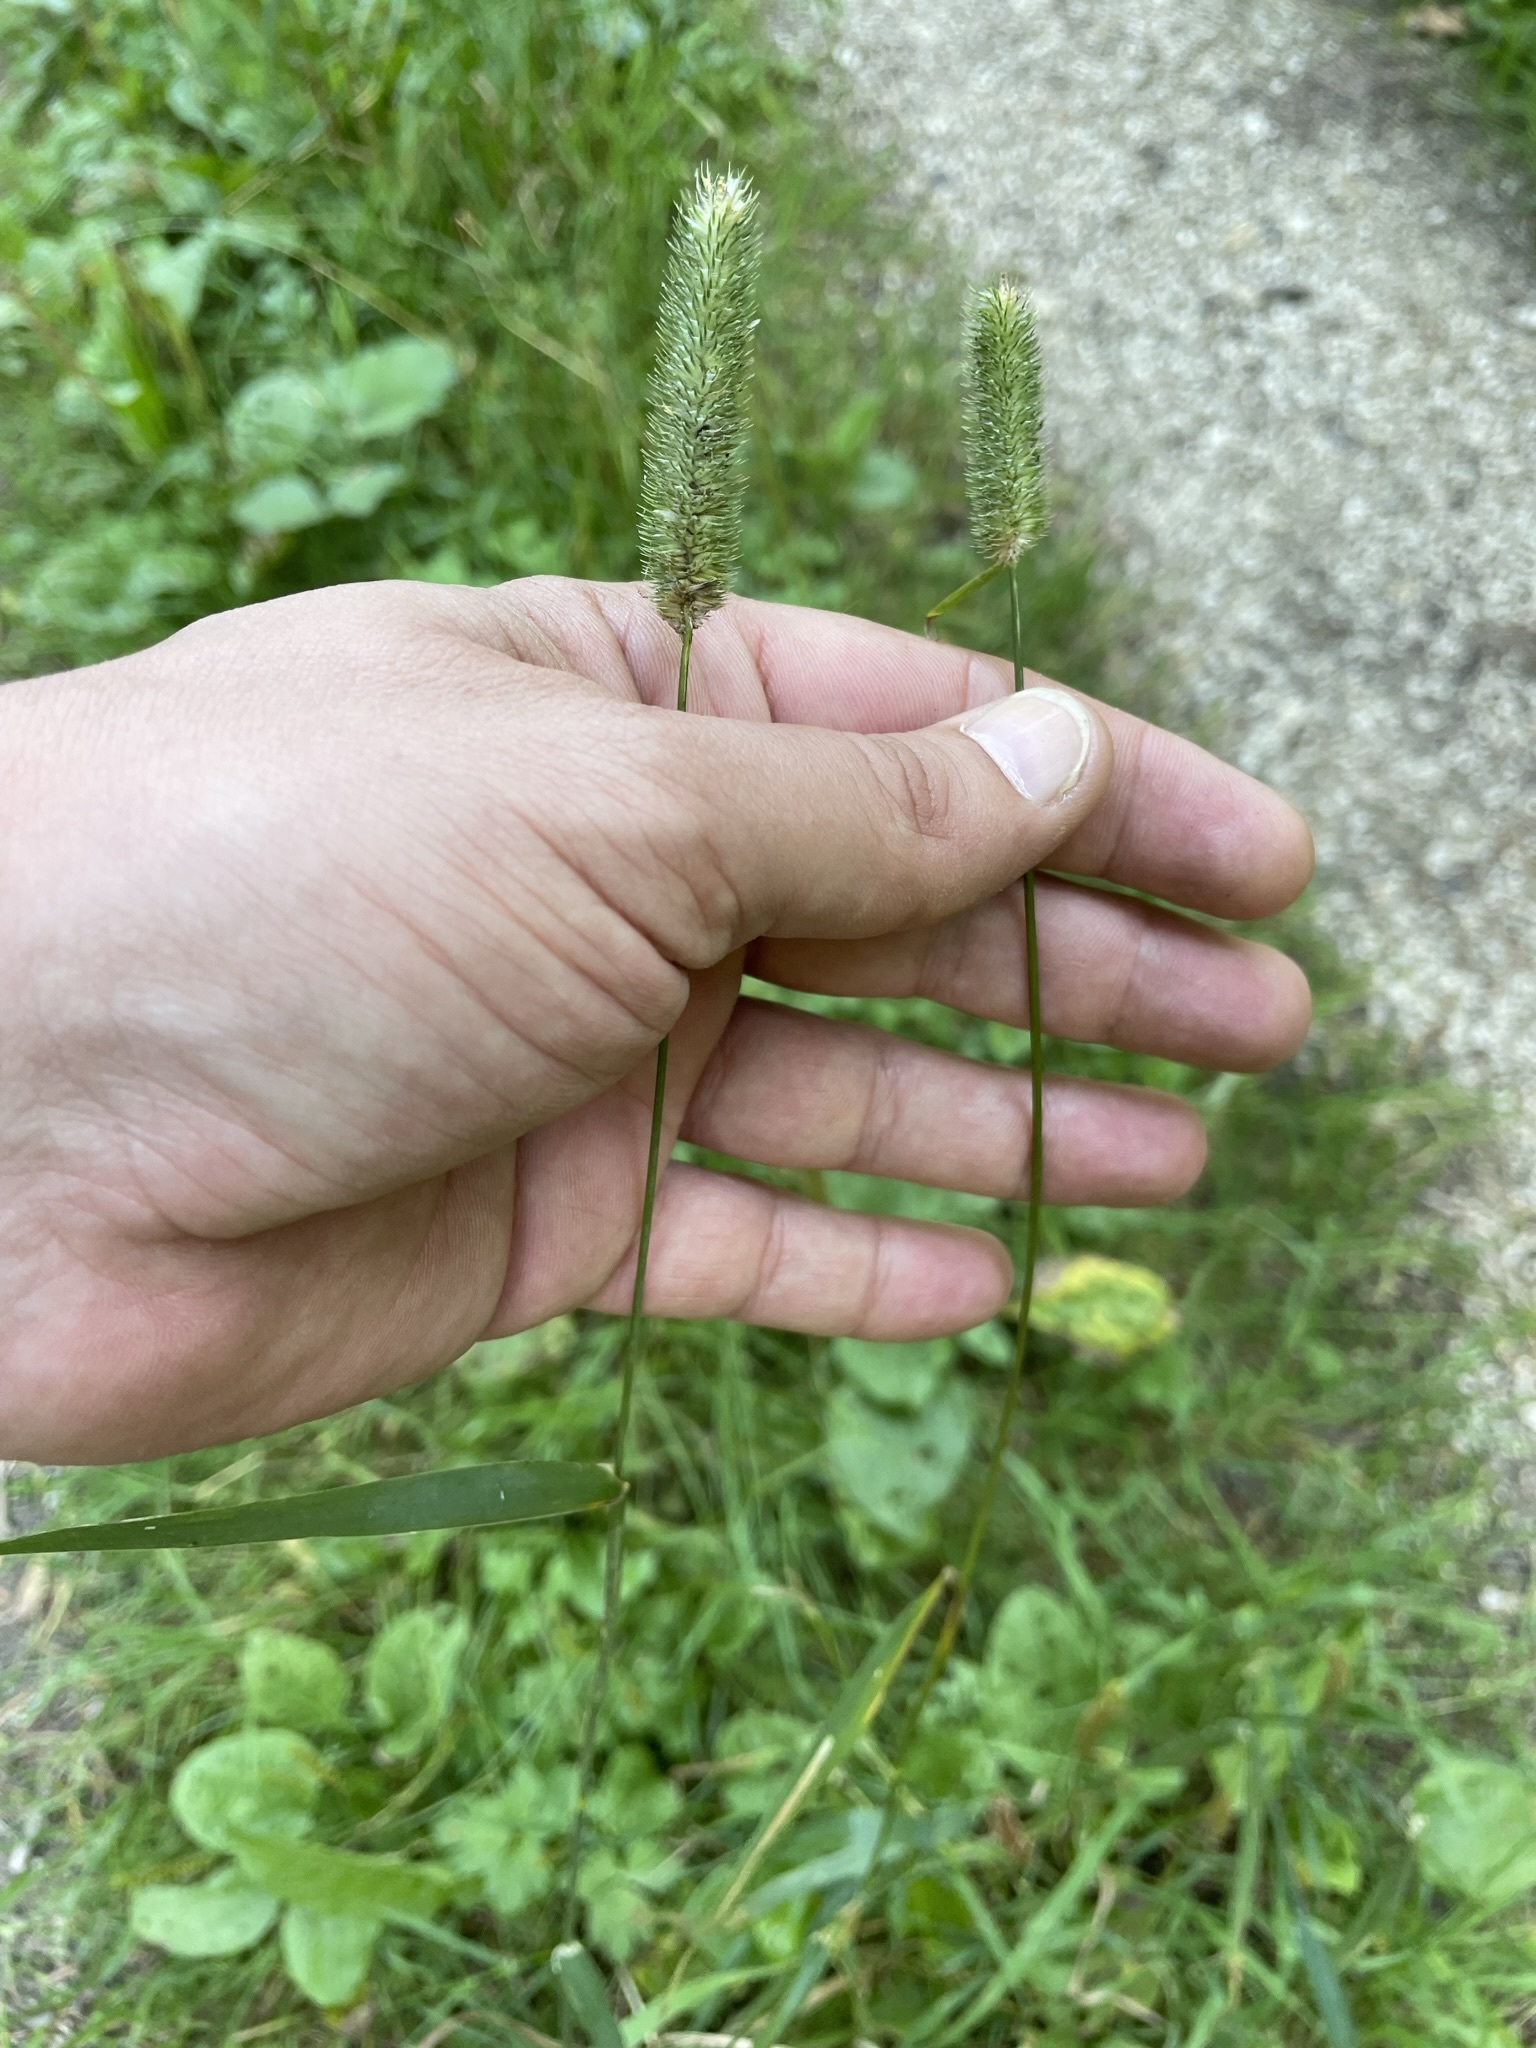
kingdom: Plantae
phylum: Tracheophyta
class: Liliopsida
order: Poales
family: Poaceae
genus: Phleum
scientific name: Phleum pratense
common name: Timothy grass
